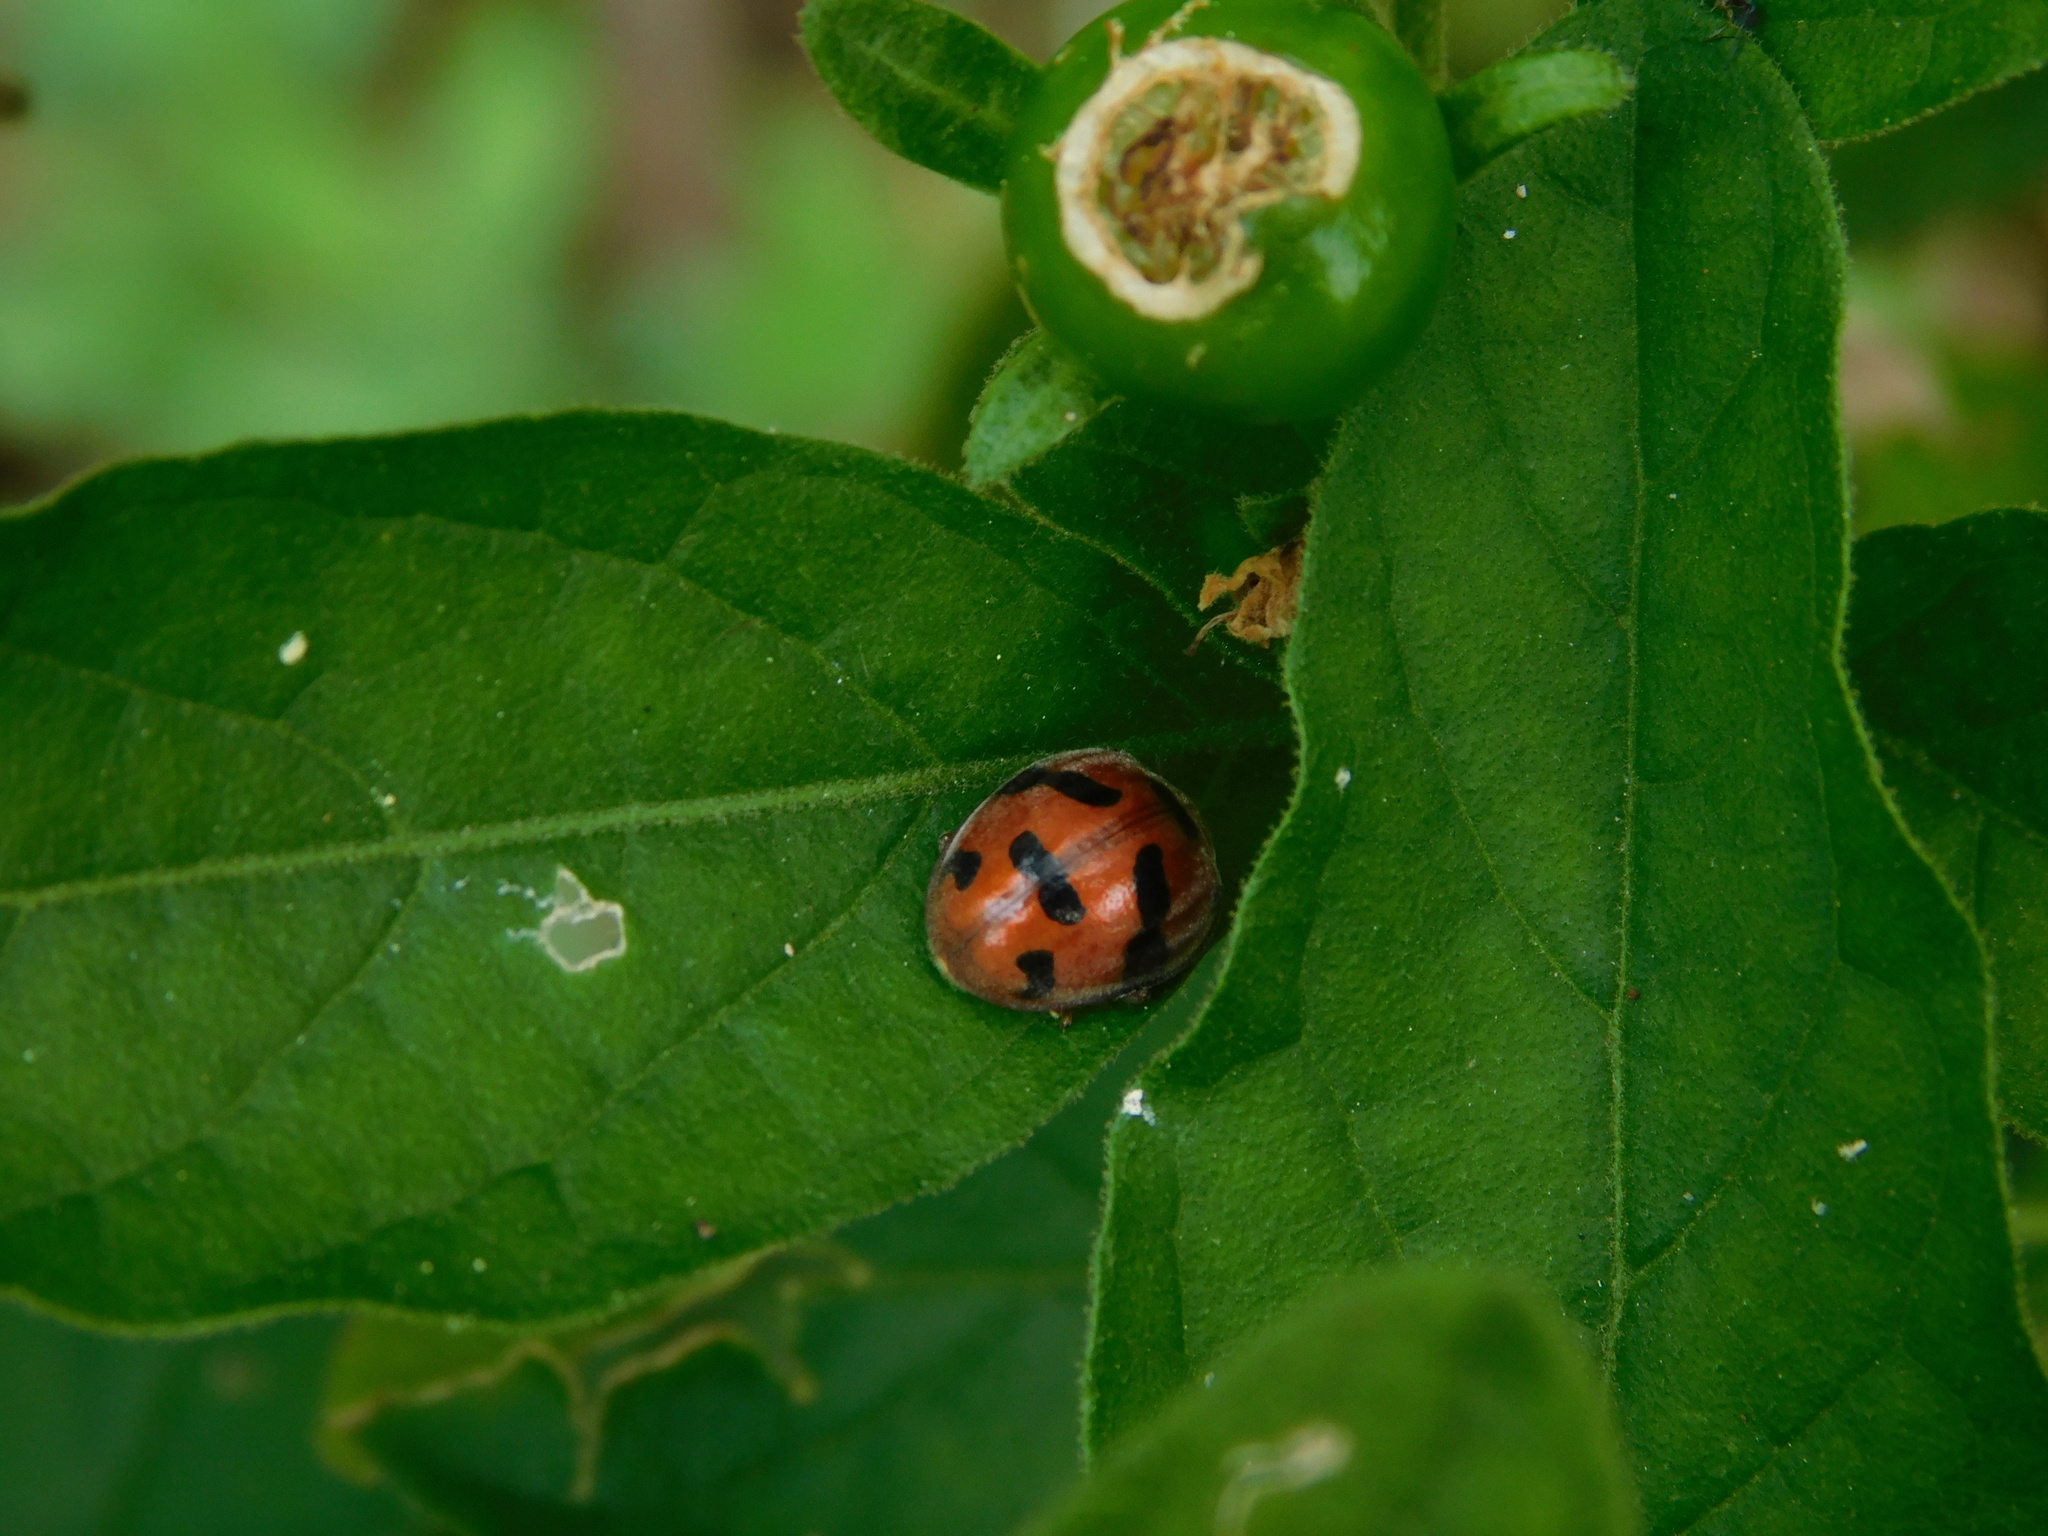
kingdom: Animalia
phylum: Arthropoda
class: Insecta
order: Coleoptera
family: Coccinellidae
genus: Henosepilachna
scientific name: Henosepilachna enneasticta
